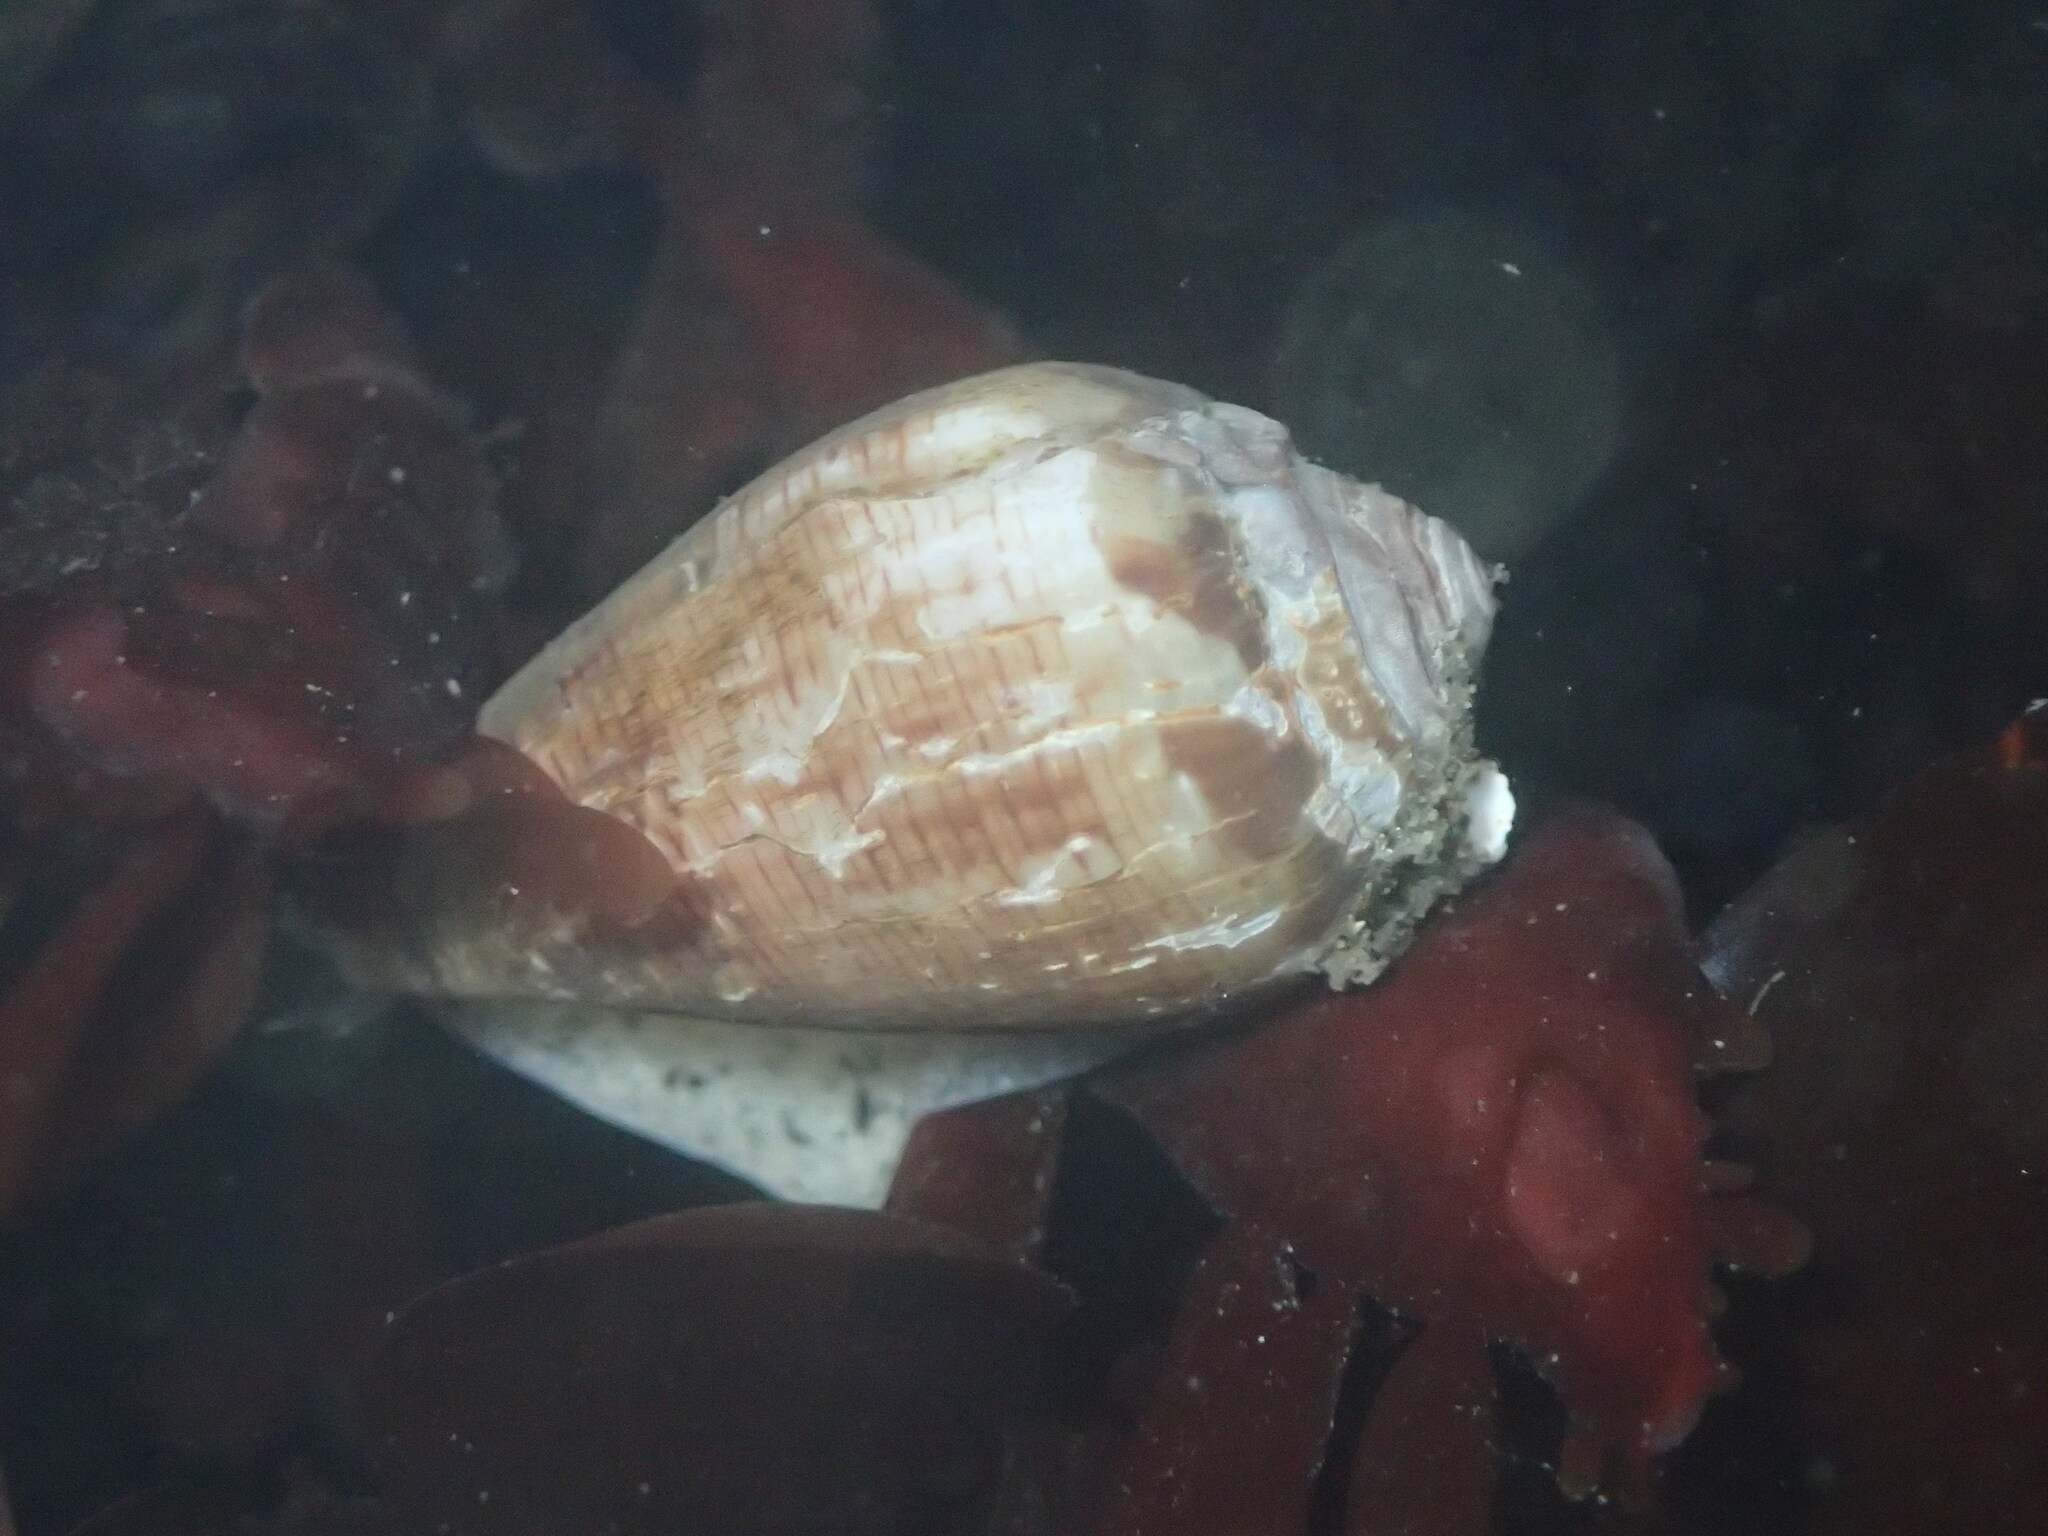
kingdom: Animalia
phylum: Mollusca
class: Gastropoda
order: Neogastropoda
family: Conidae
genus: Californiconus
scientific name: Californiconus californicus
